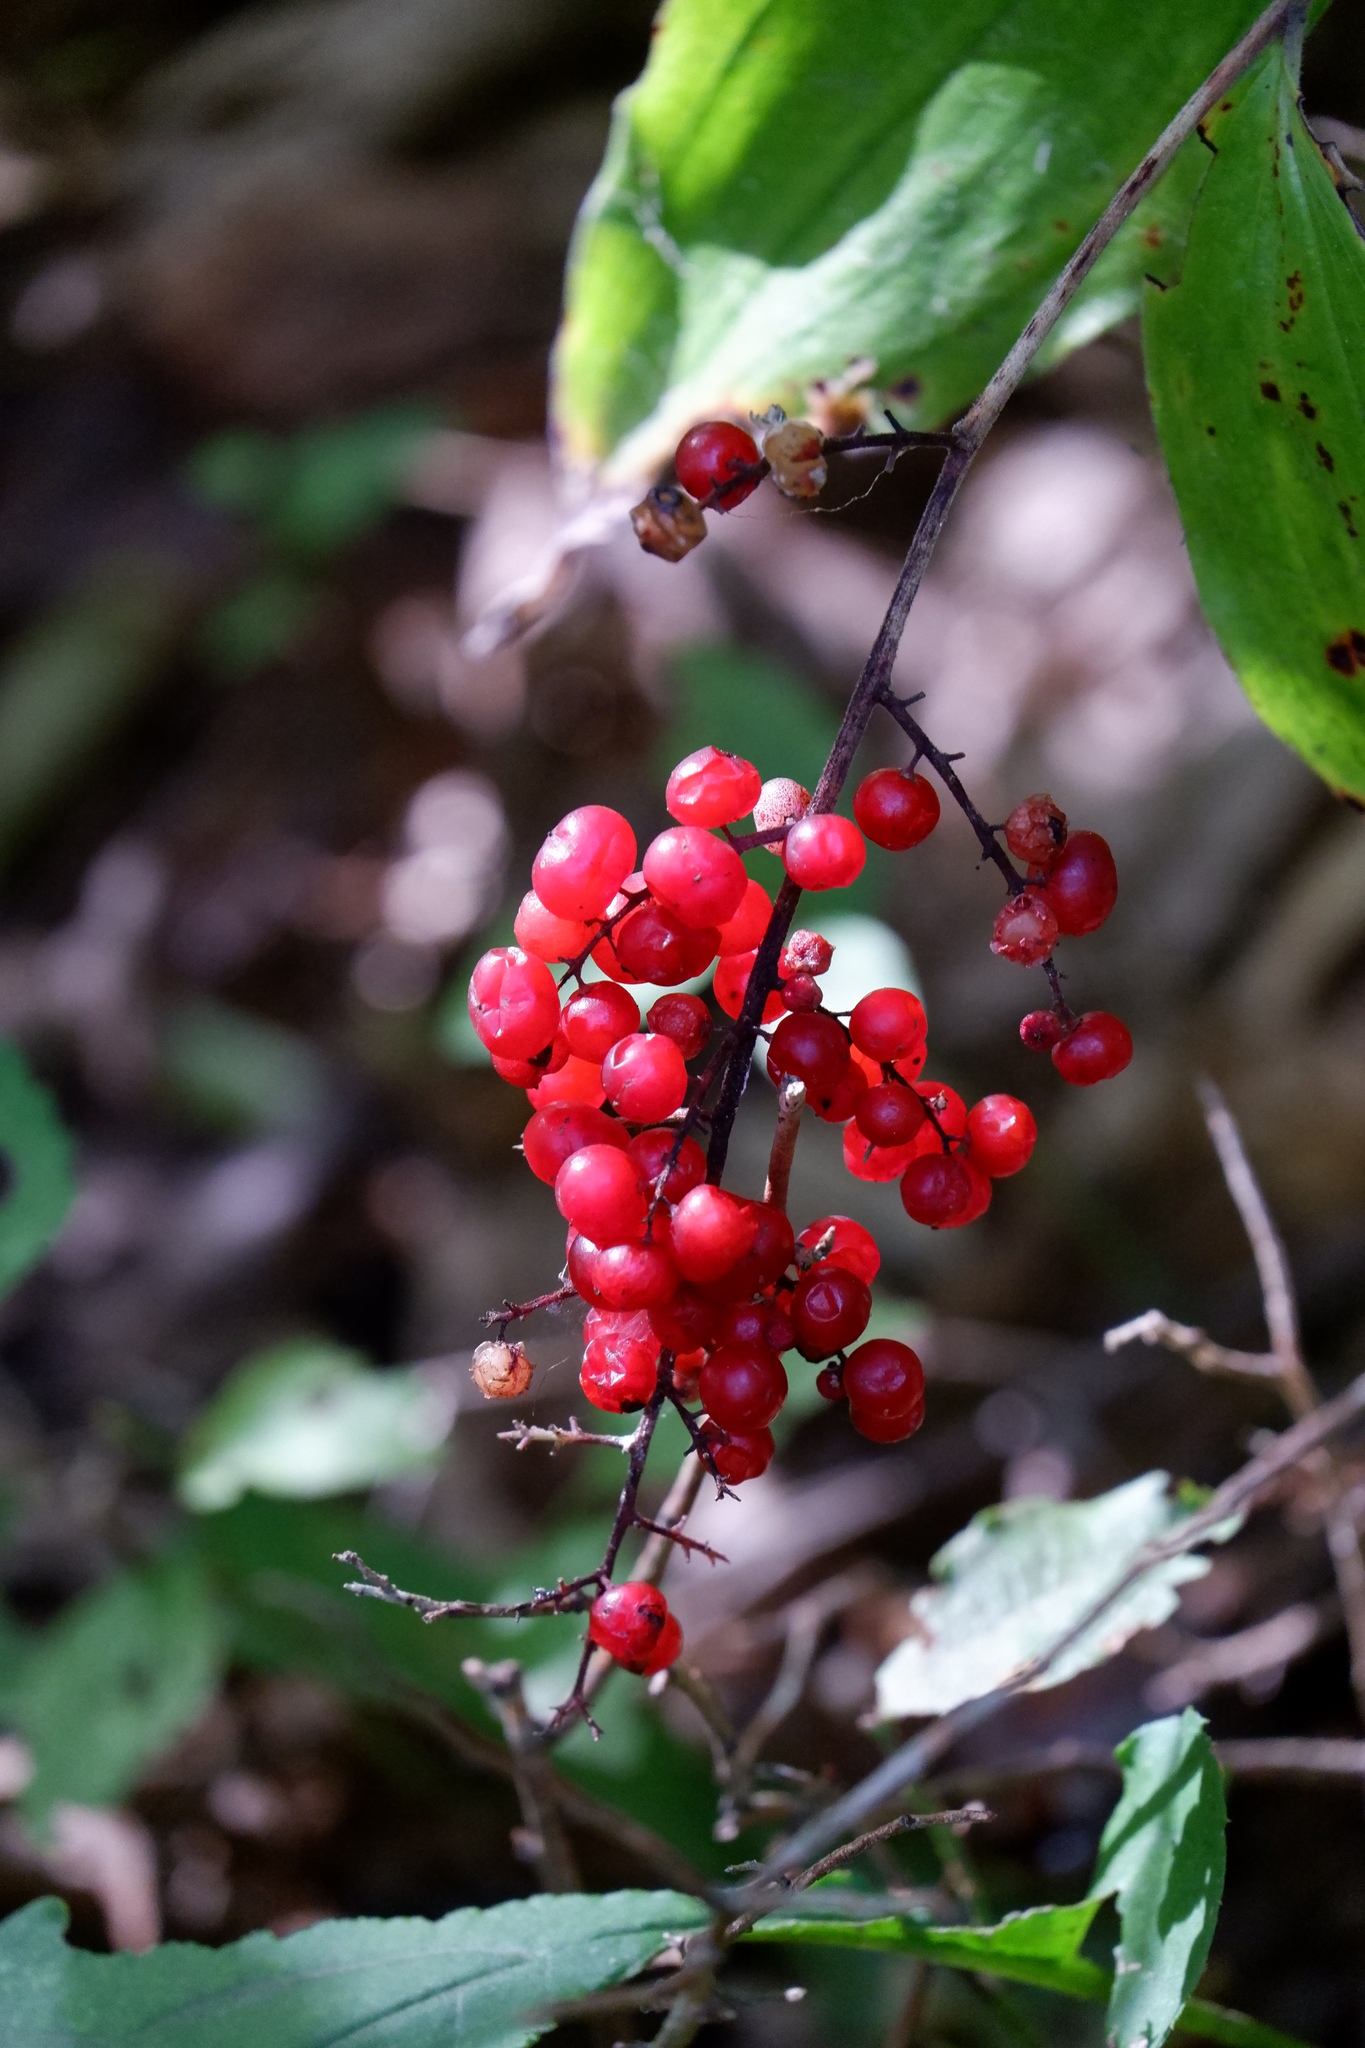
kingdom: Plantae
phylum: Tracheophyta
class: Liliopsida
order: Asparagales
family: Asparagaceae
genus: Maianthemum
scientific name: Maianthemum racemosum
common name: False spikenard
